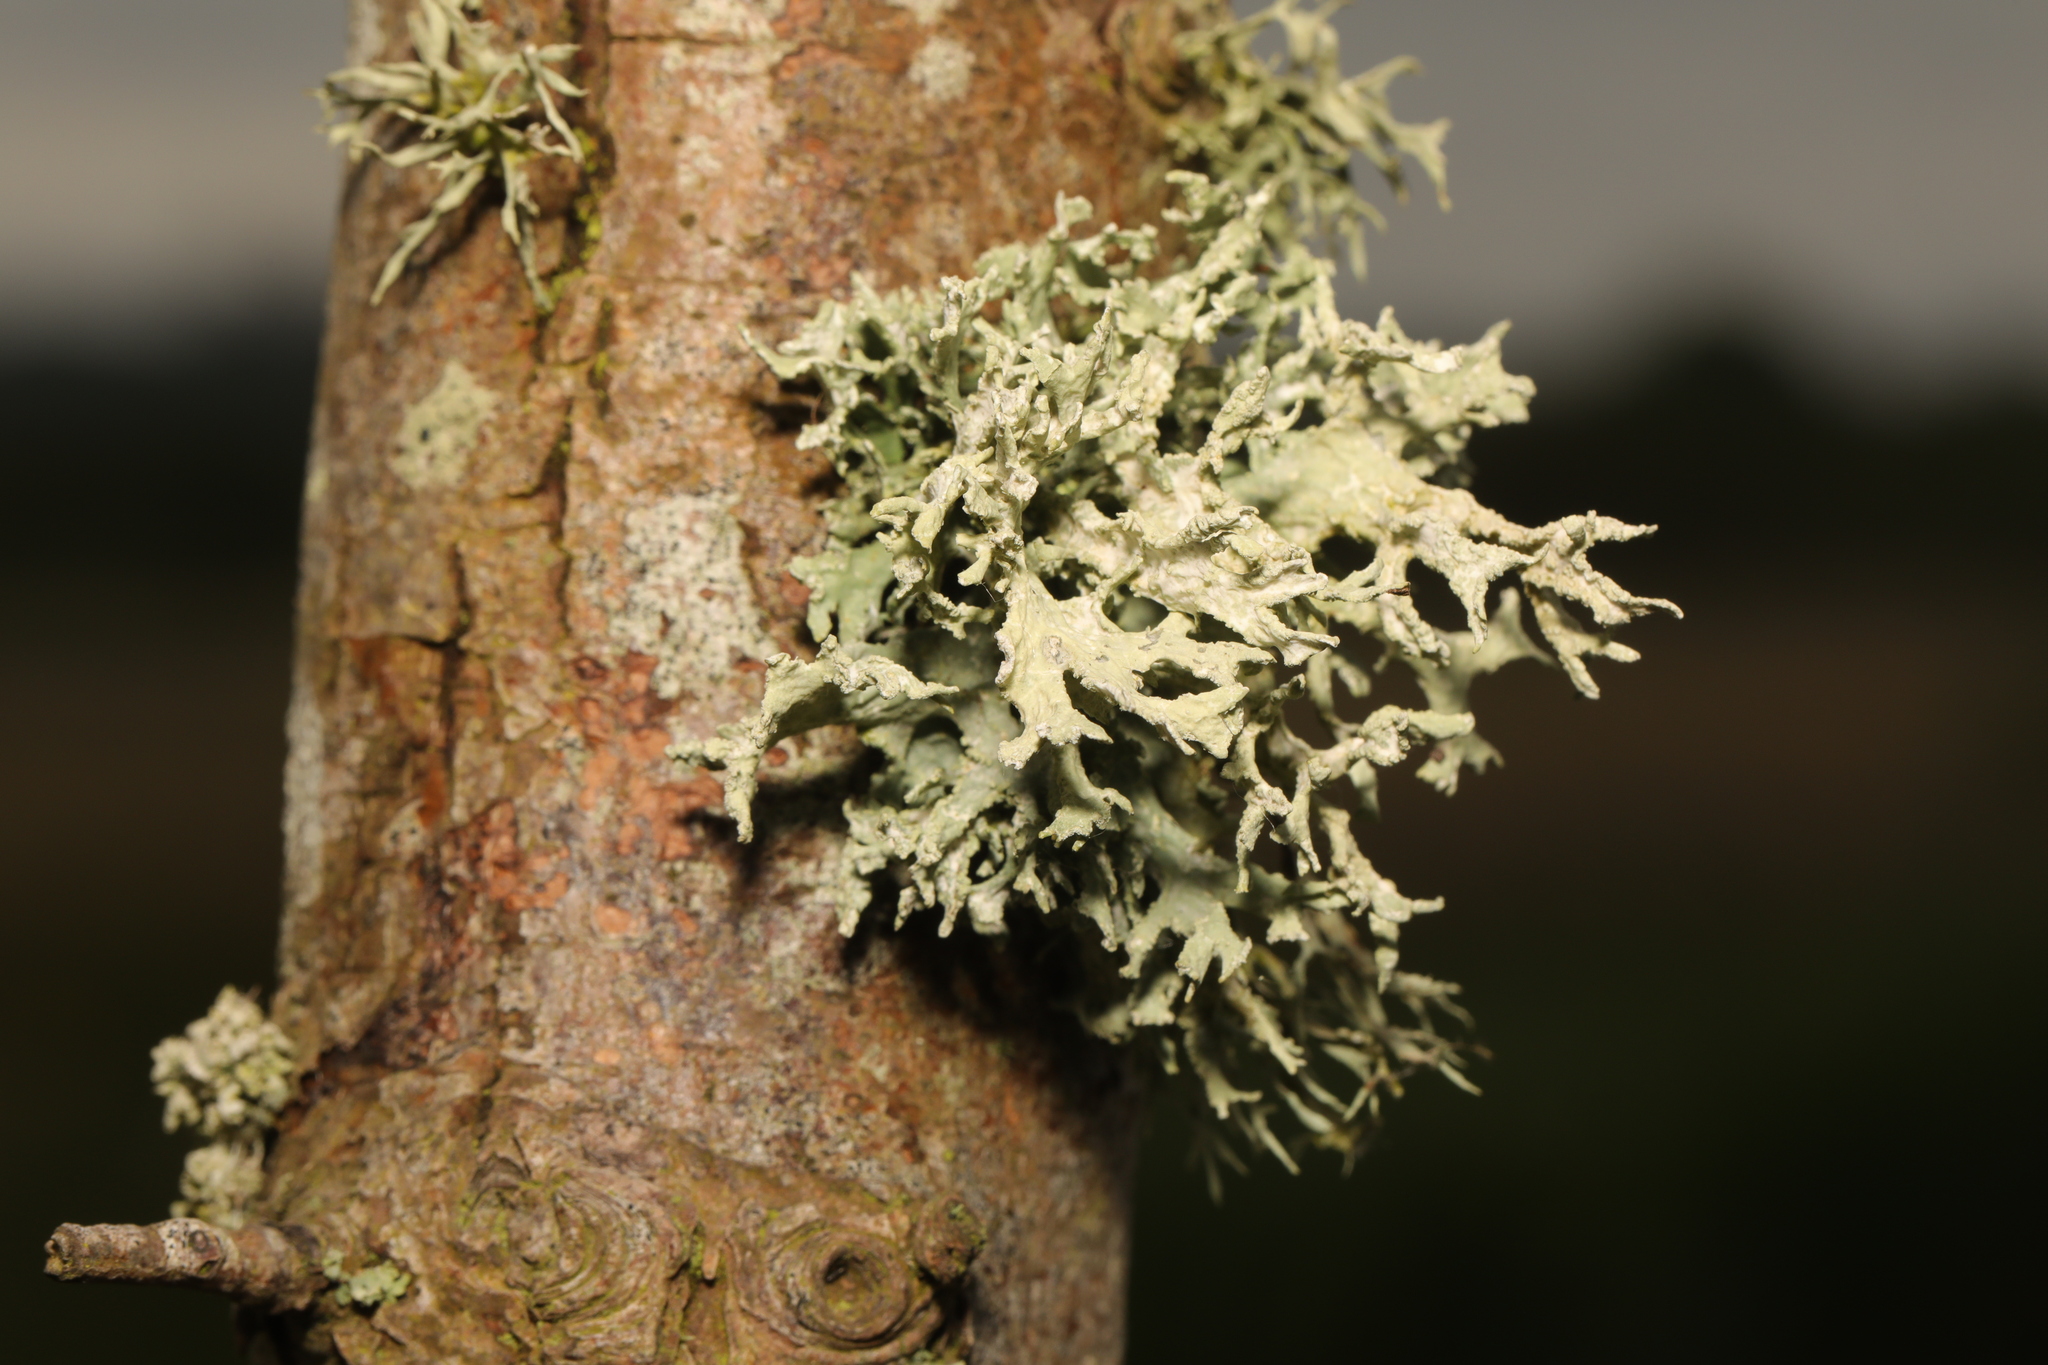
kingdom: Fungi
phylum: Ascomycota
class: Lecanoromycetes
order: Lecanorales
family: Parmeliaceae
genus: Evernia
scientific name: Evernia prunastri
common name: Oak moss
